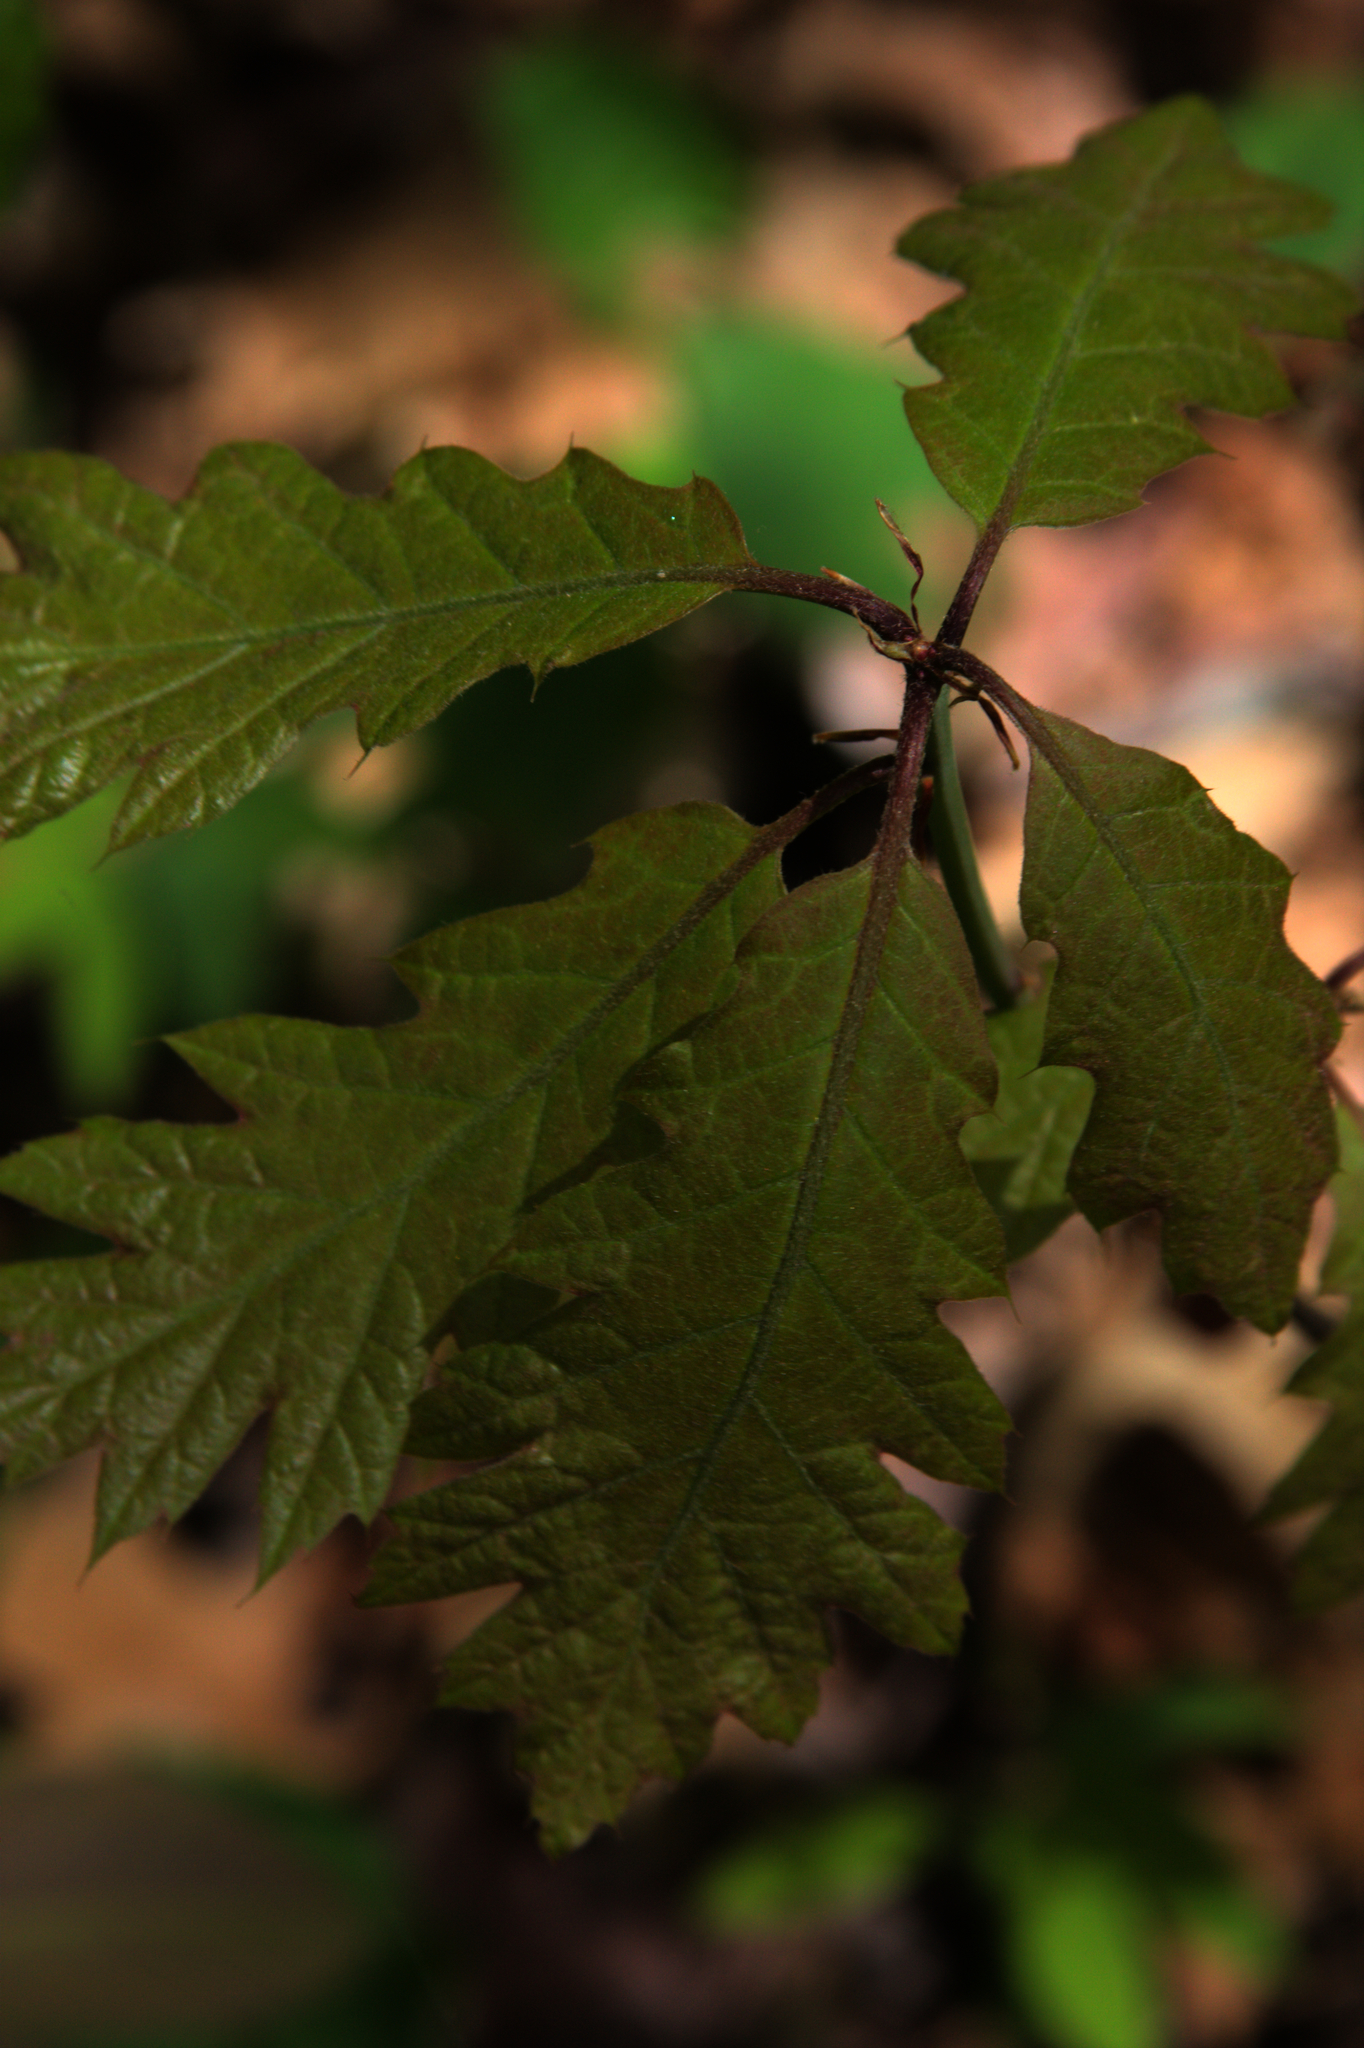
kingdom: Plantae
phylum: Tracheophyta
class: Magnoliopsida
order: Fagales
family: Fagaceae
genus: Quercus
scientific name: Quercus rubra
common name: Red oak
